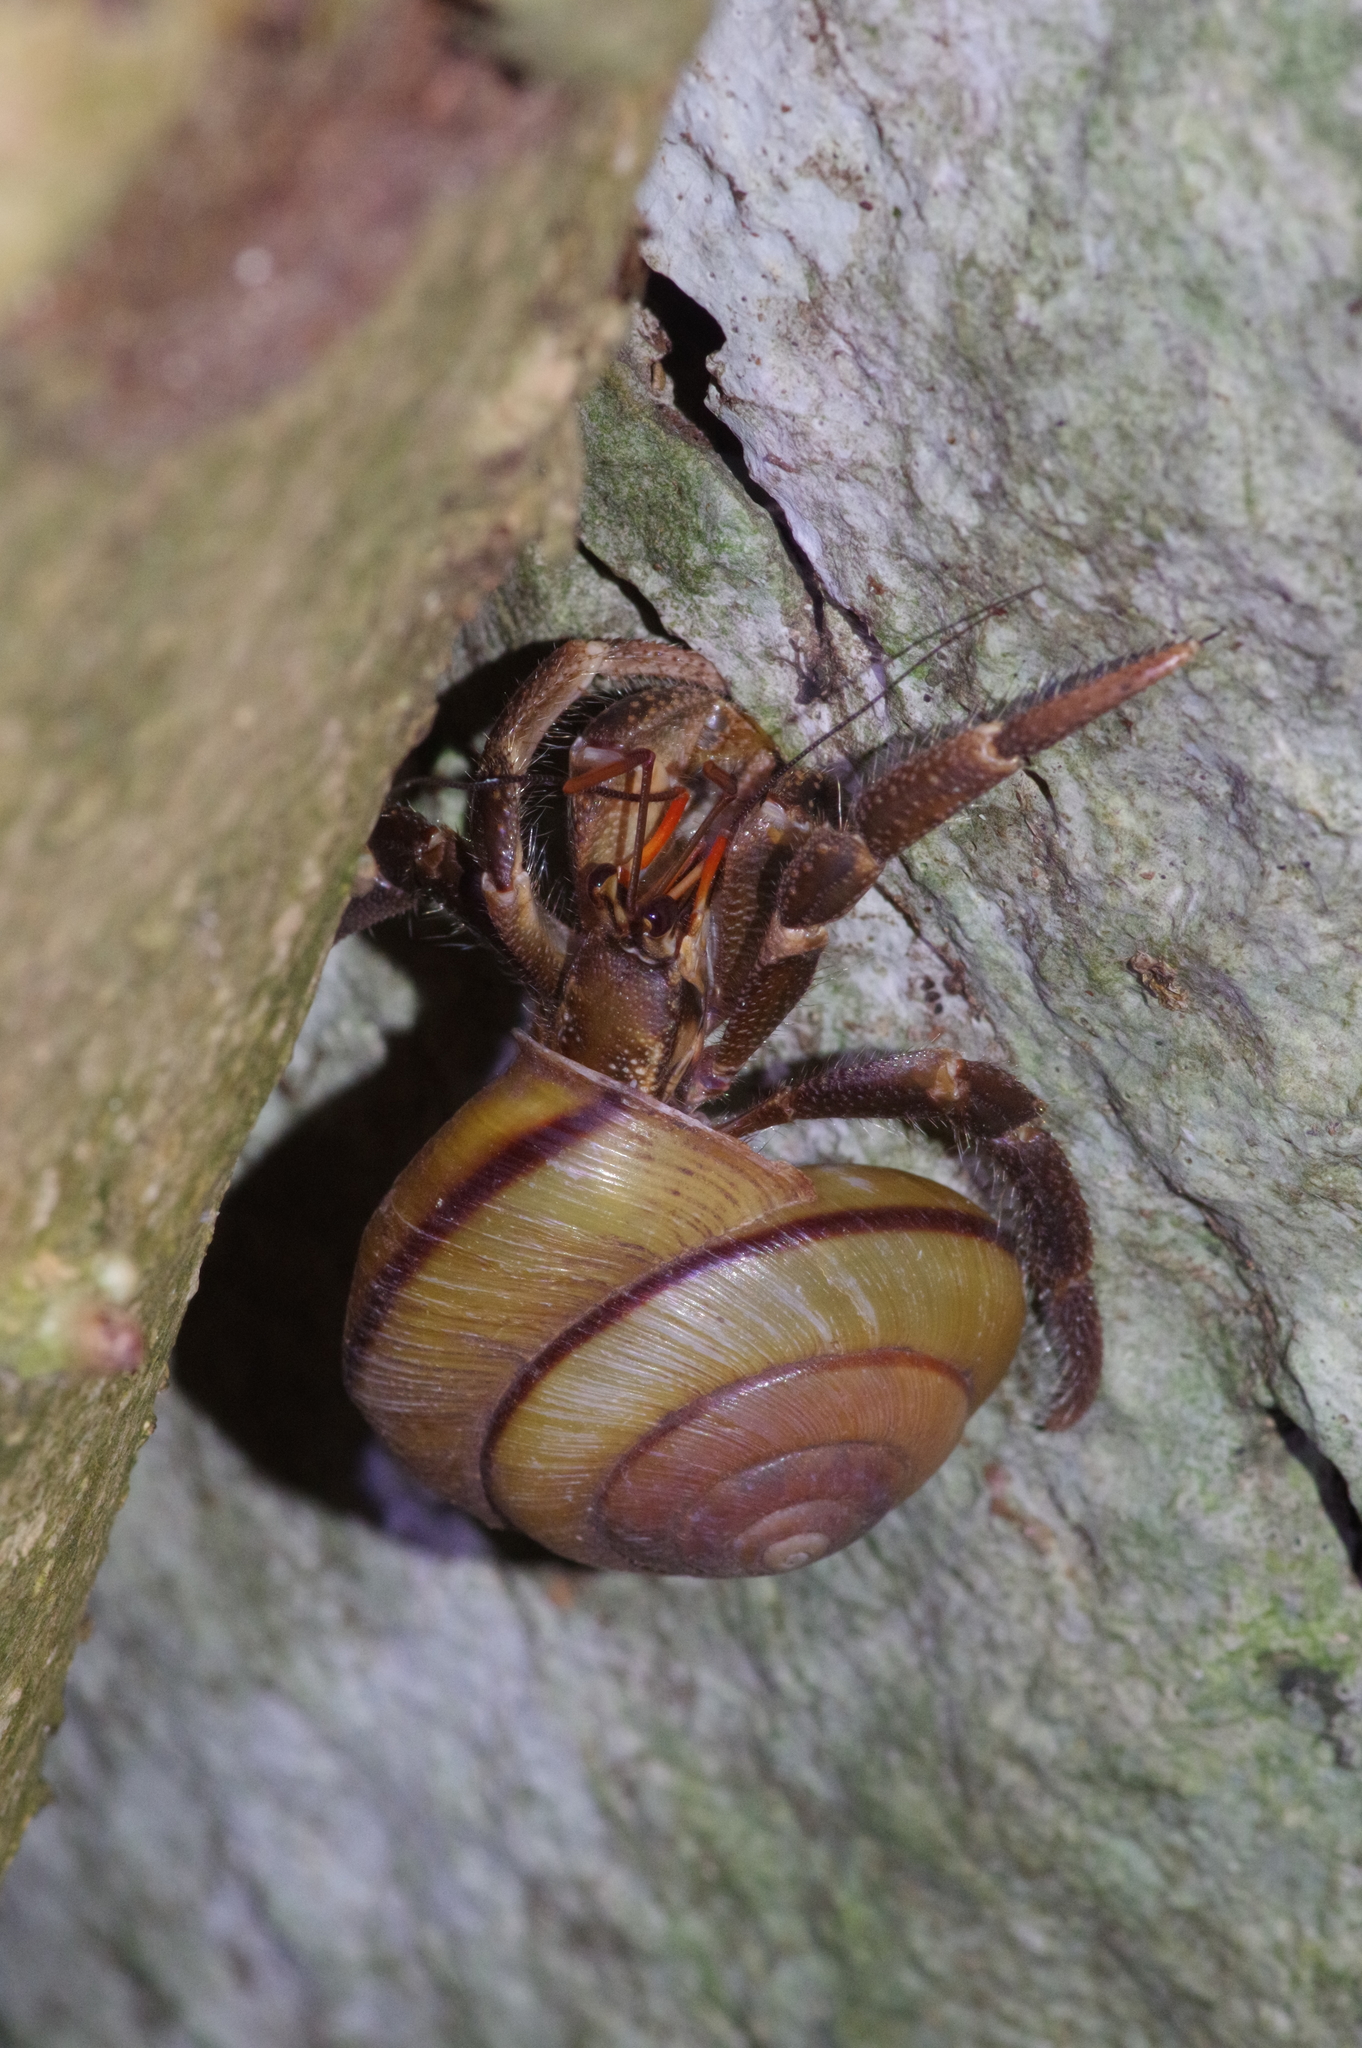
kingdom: Animalia
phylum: Arthropoda
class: Malacostraca
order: Decapoda
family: Coenobitidae
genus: Coenobita
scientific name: Coenobita cavipes
